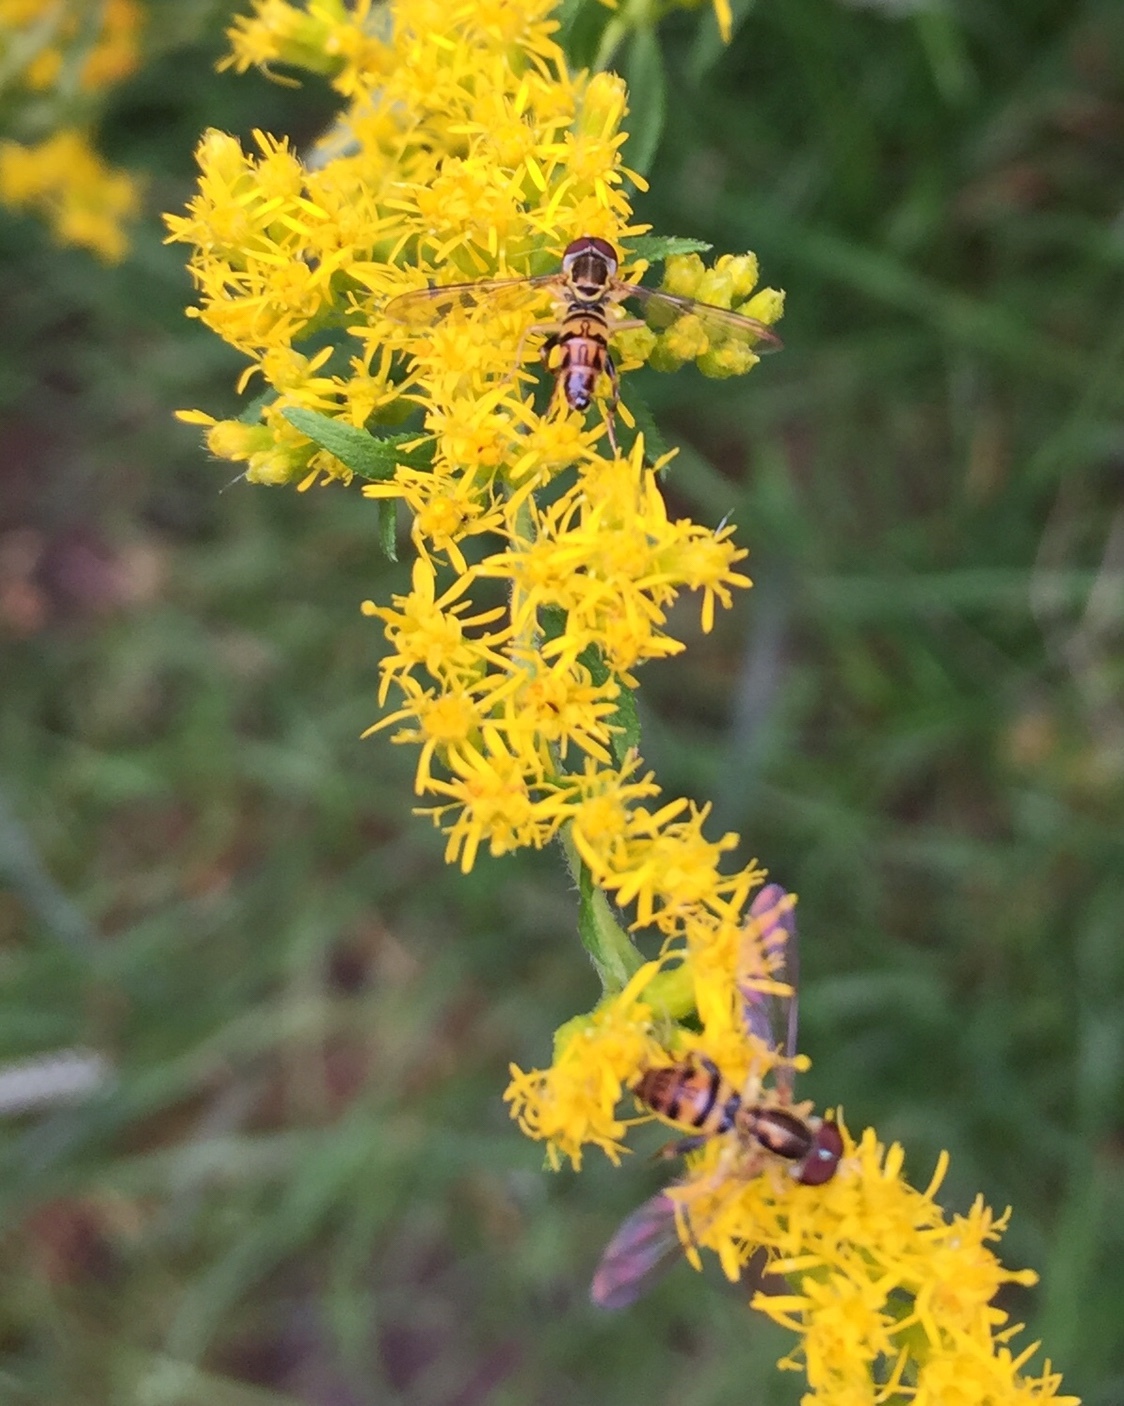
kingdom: Animalia
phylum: Arthropoda
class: Insecta
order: Diptera
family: Syrphidae
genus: Toxomerus
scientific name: Toxomerus geminatus
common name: Eastern calligrapher
